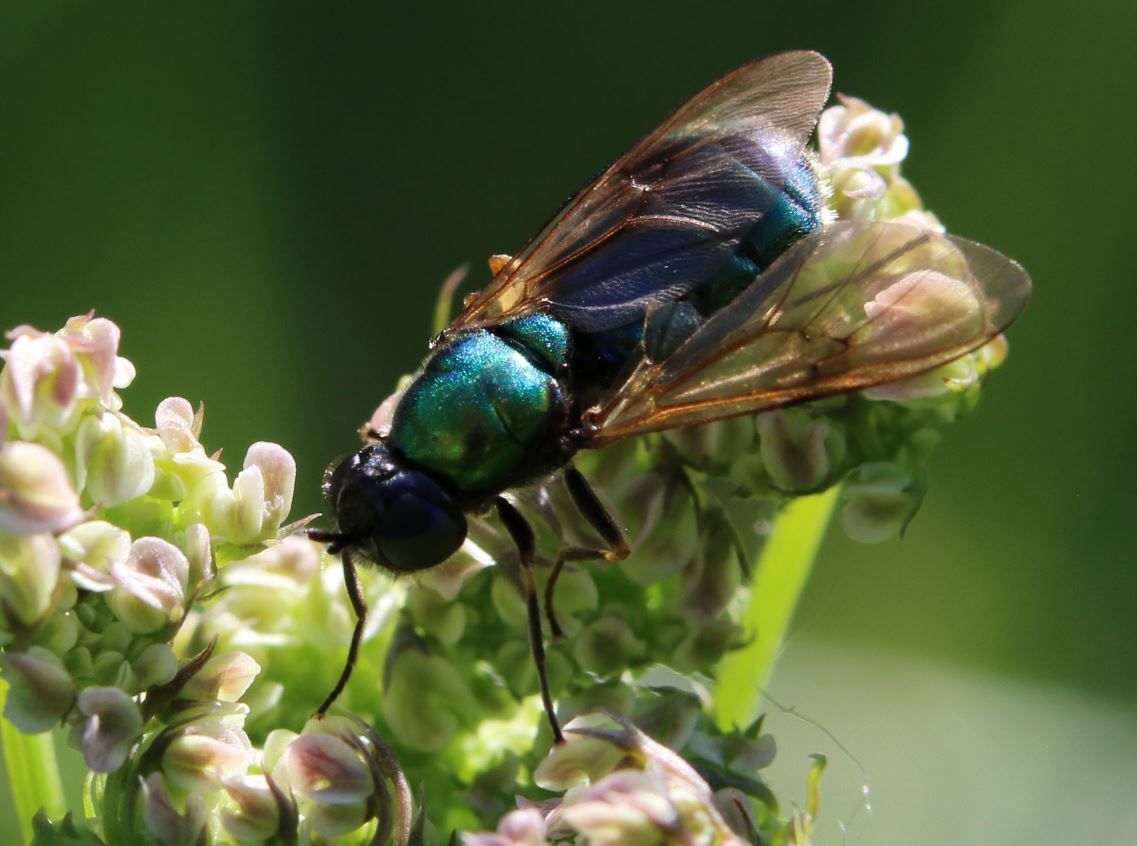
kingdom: Animalia
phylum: Arthropoda
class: Insecta
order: Diptera
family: Stratiomyidae
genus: Chloromyia
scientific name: Chloromyia formosa
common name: Soldier fly
